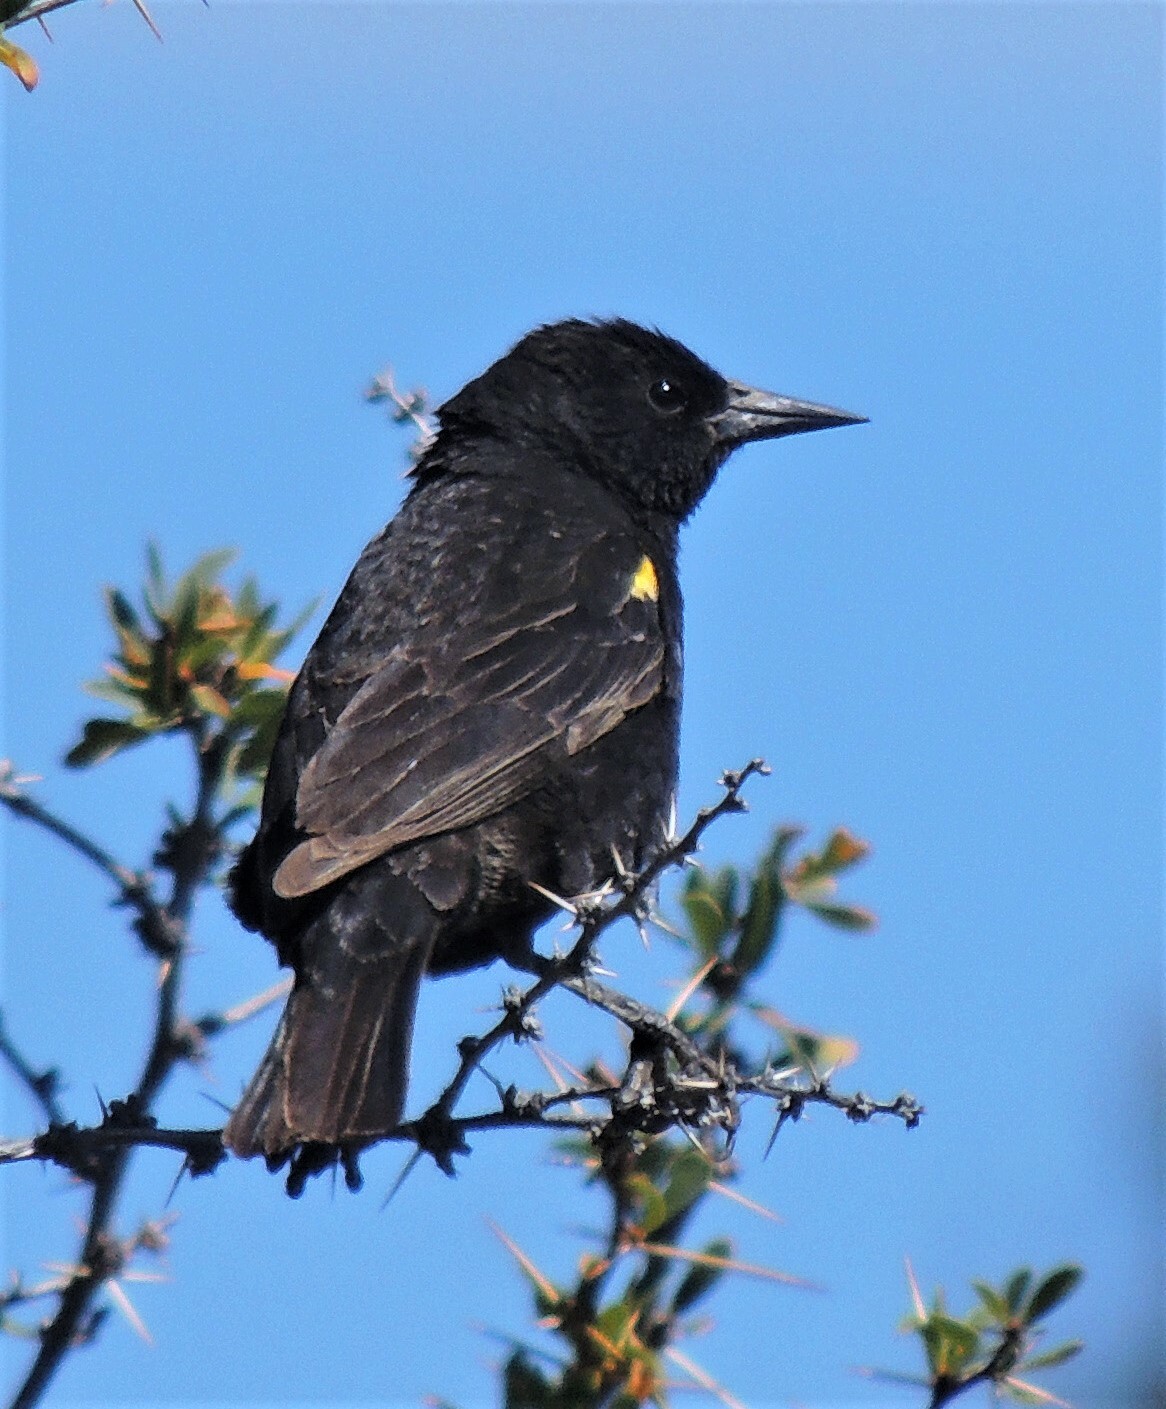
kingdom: Animalia
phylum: Chordata
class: Aves
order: Passeriformes
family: Icteridae
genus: Agelasticus
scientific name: Agelasticus thilius
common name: Yellow-winged blackbird
